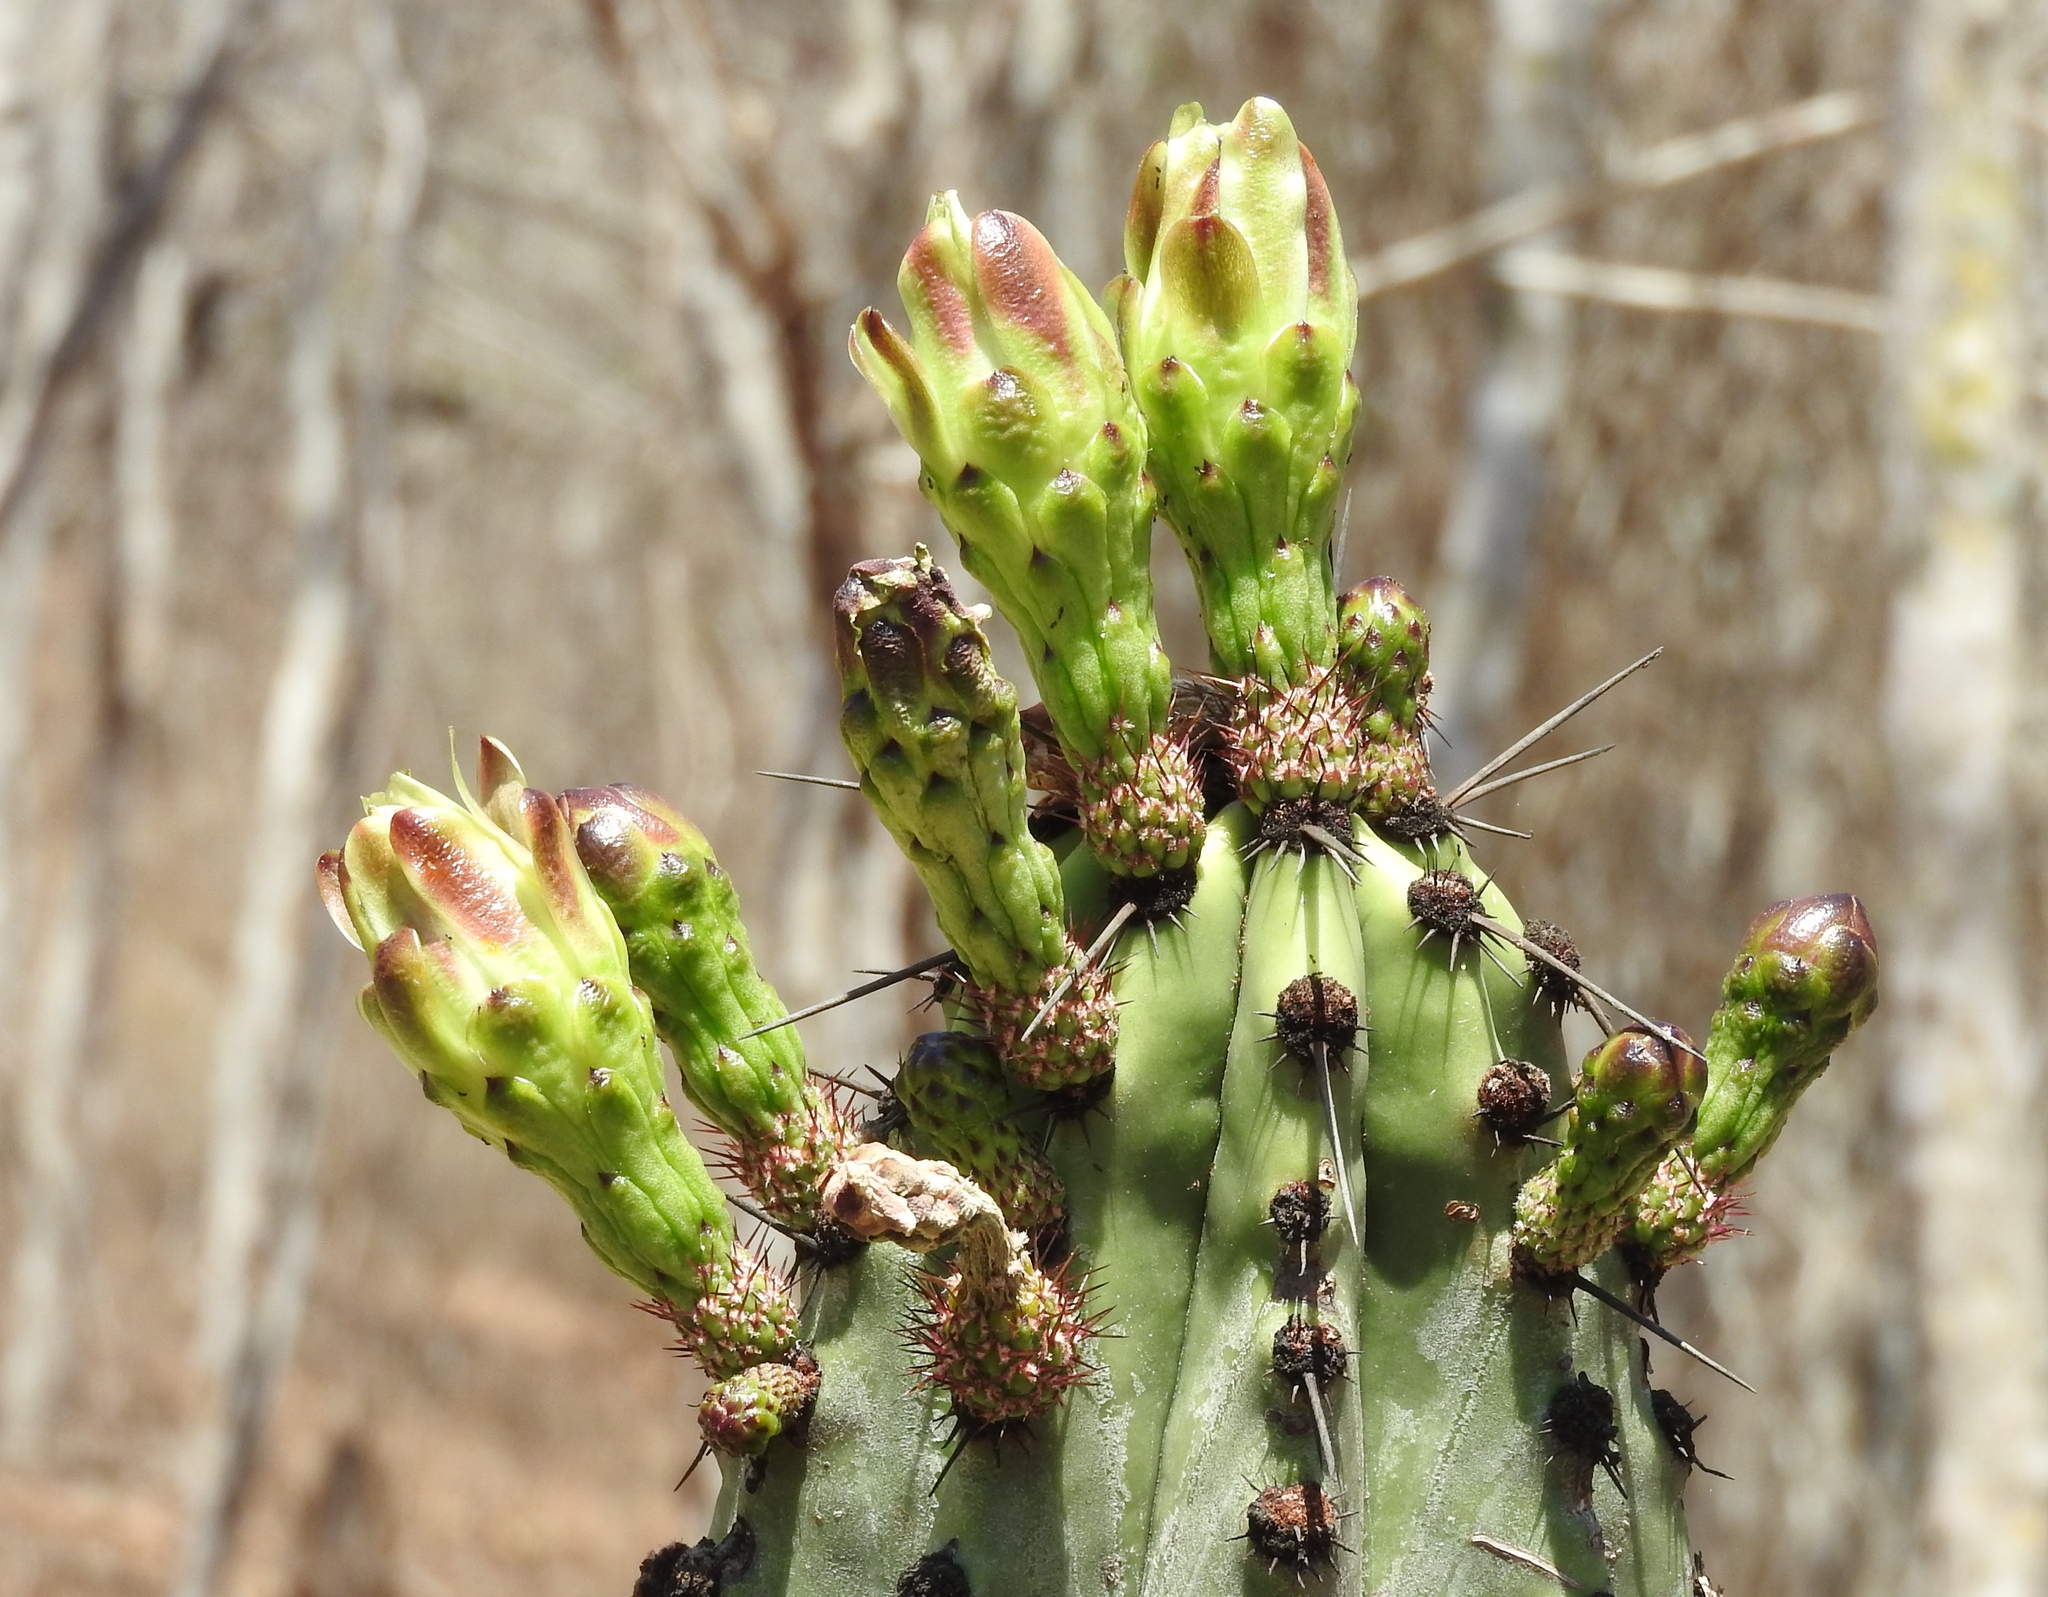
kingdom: Plantae
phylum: Tracheophyta
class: Magnoliopsida
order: Caryophyllales
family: Cactaceae
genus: Stenocereus
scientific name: Stenocereus martinezii
